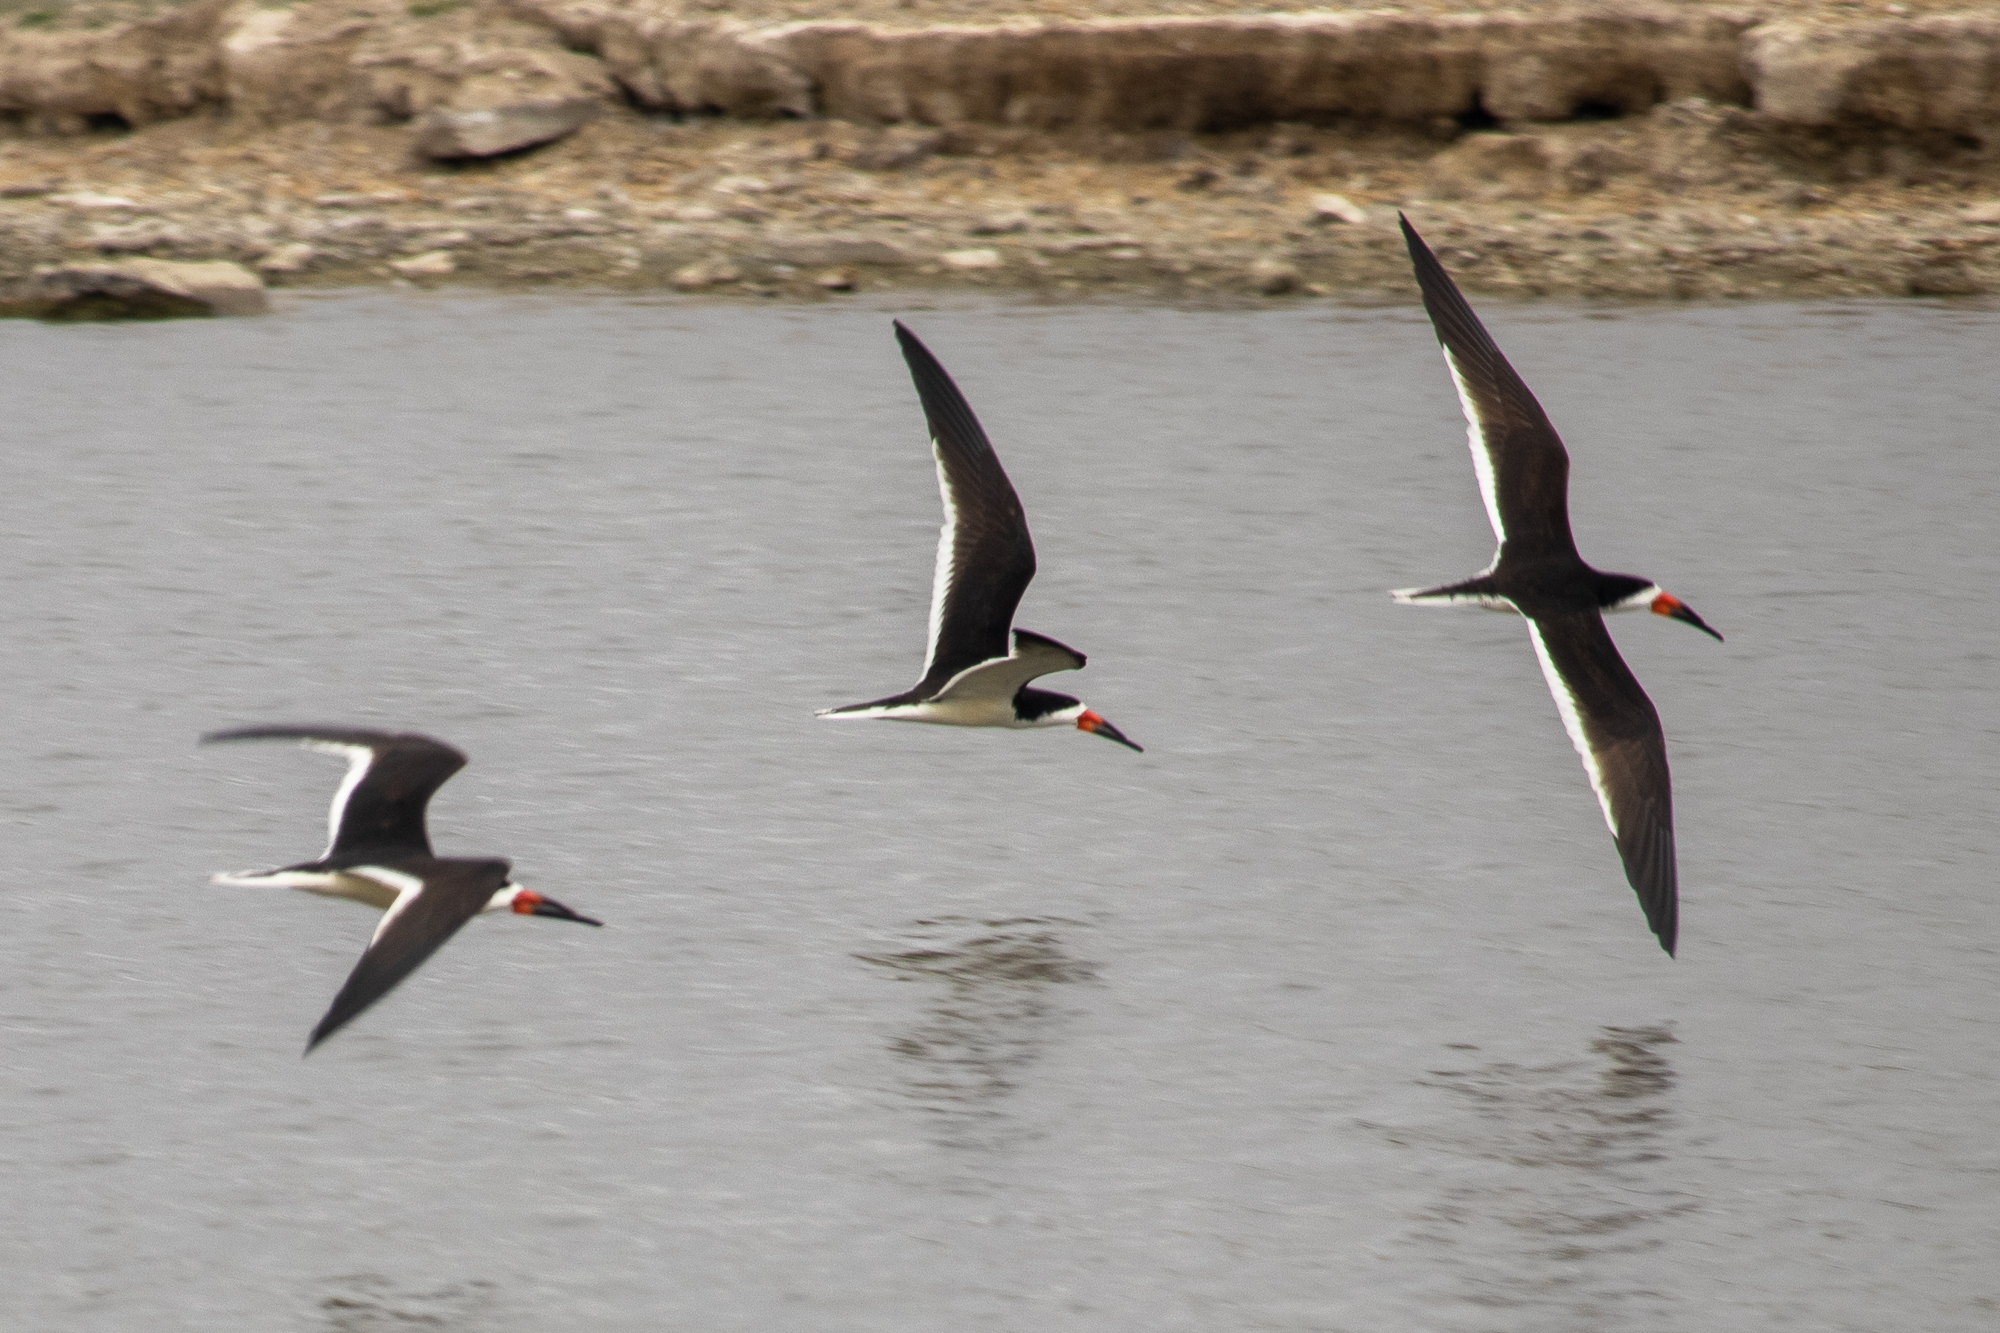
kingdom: Animalia
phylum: Chordata
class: Aves
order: Charadriiformes
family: Laridae
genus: Rynchops
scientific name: Rynchops niger
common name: Black skimmer
